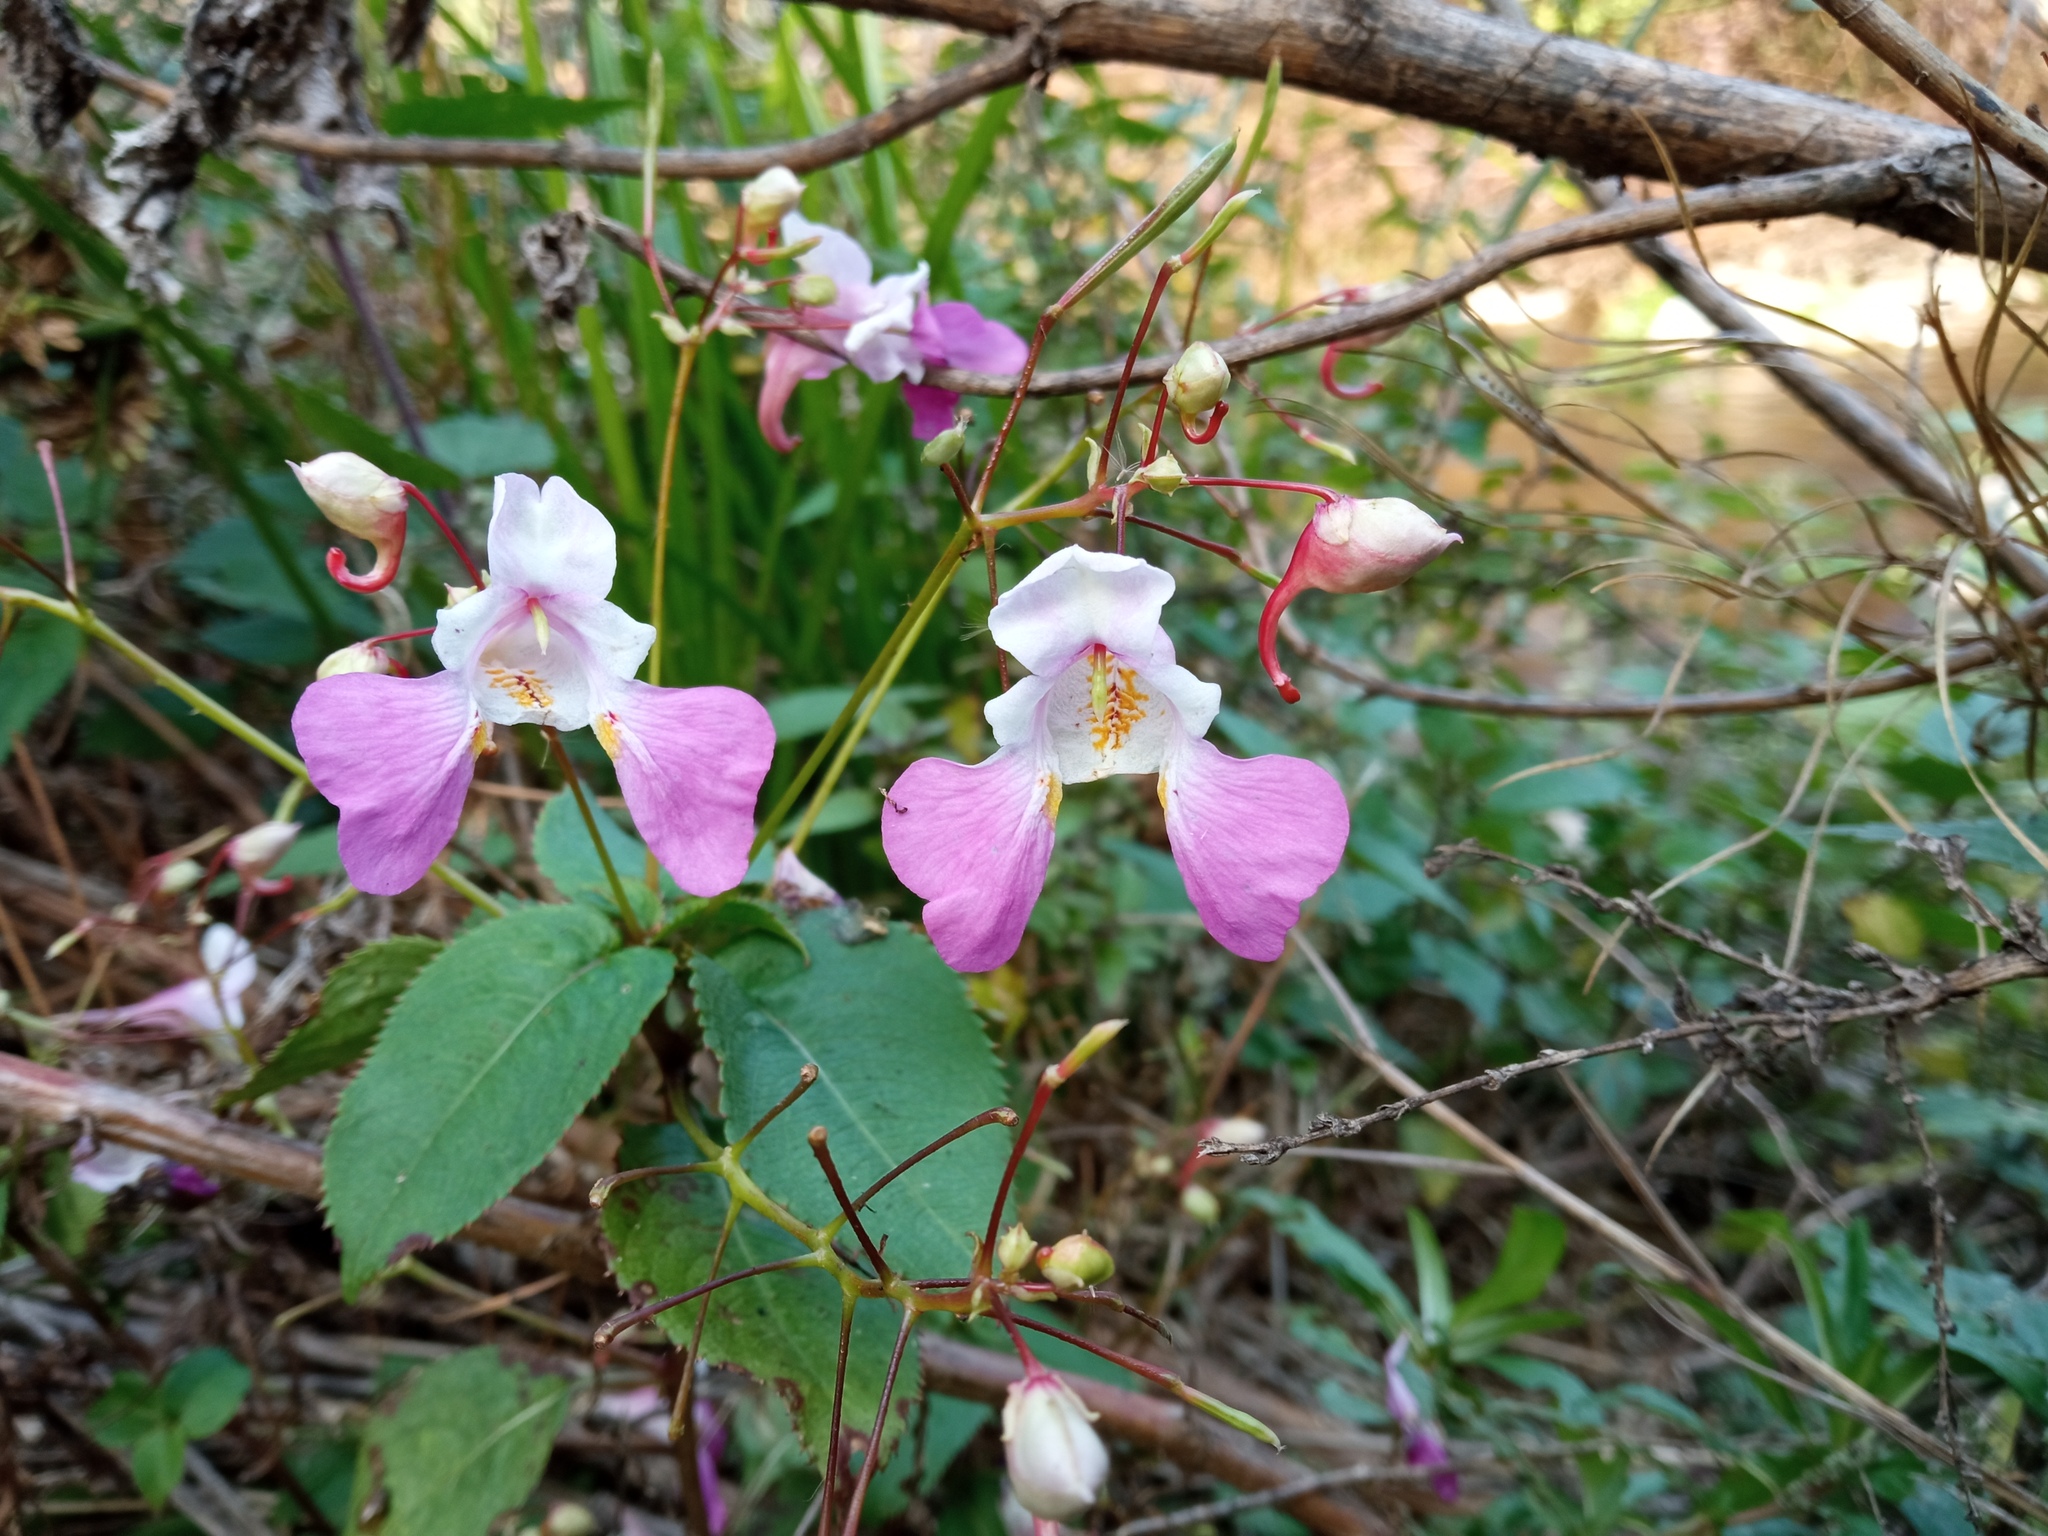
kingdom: Plantae
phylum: Tracheophyta
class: Magnoliopsida
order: Ericales
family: Balsaminaceae
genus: Impatiens
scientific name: Impatiens balfourii
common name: Balfour's touch-me-not
